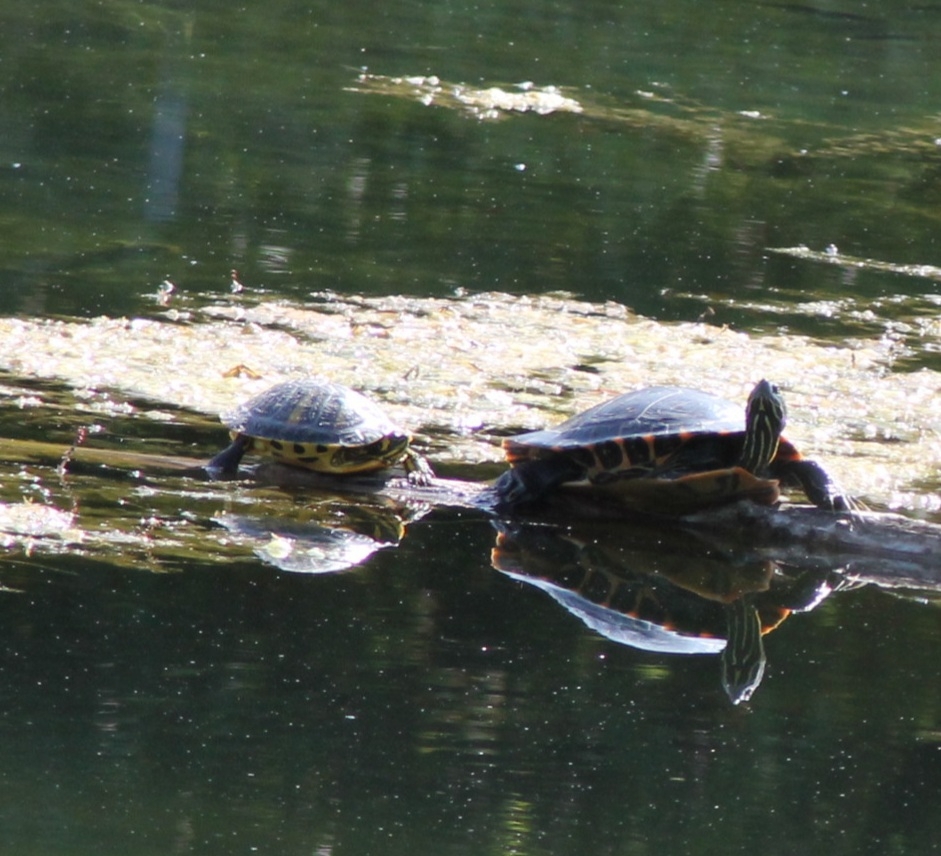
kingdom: Animalia
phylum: Chordata
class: Testudines
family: Emydidae
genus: Trachemys
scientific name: Trachemys scripta
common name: Slider
